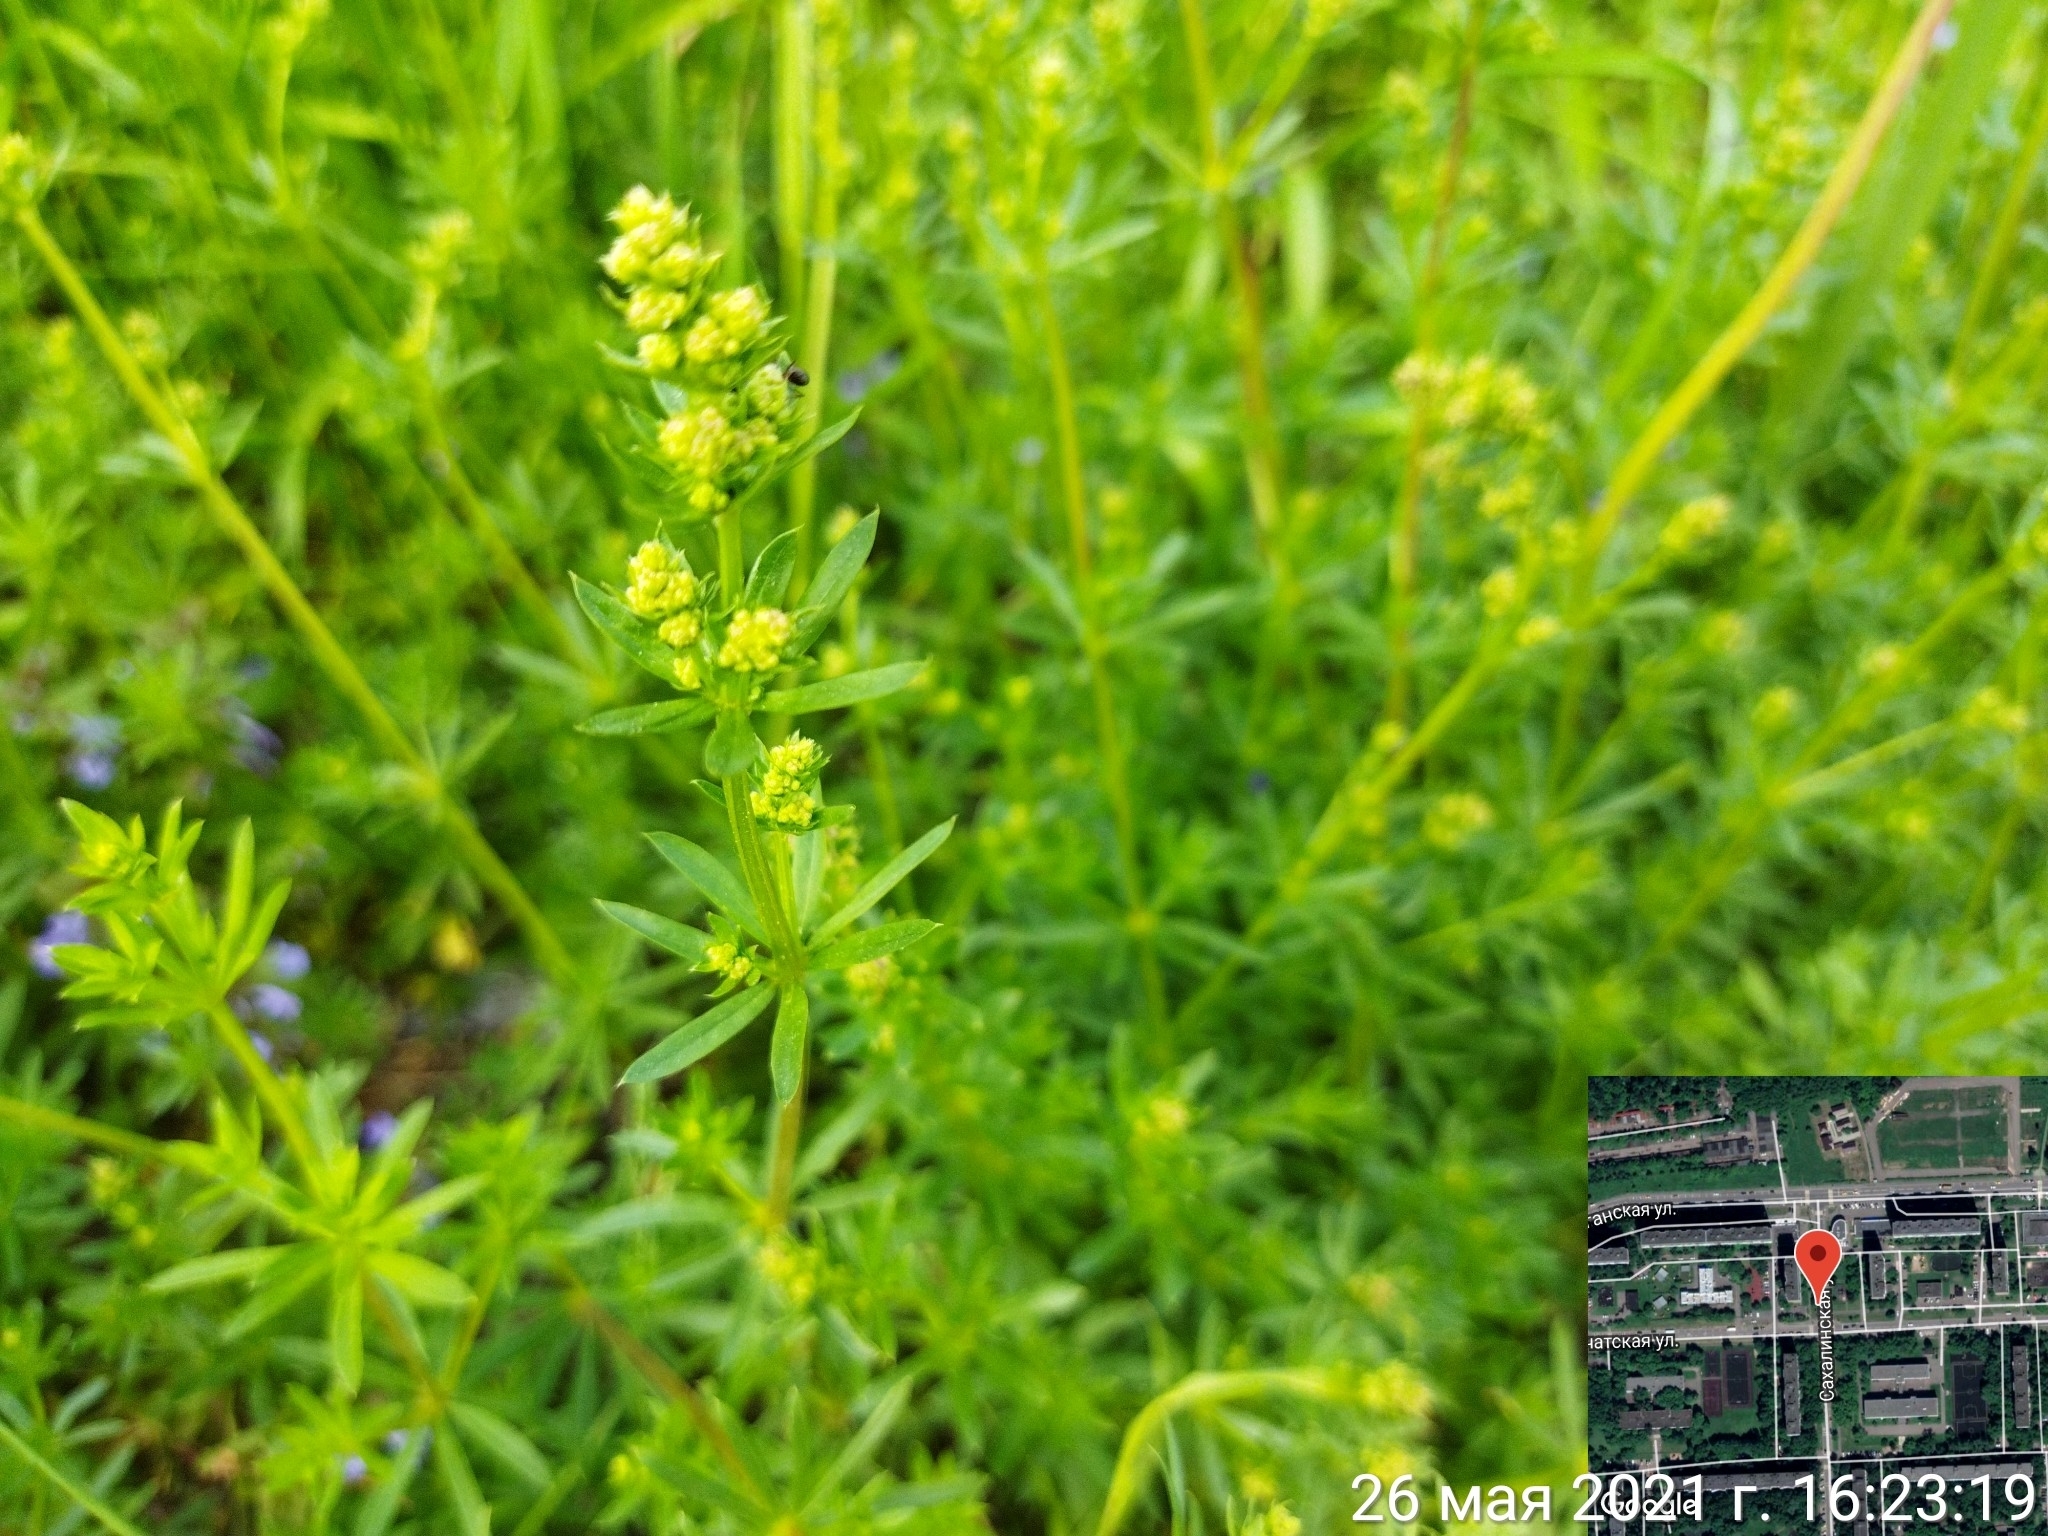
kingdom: Plantae
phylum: Tracheophyta
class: Magnoliopsida
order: Gentianales
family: Rubiaceae
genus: Galium
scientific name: Galium mollugo
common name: Hedge bedstraw
